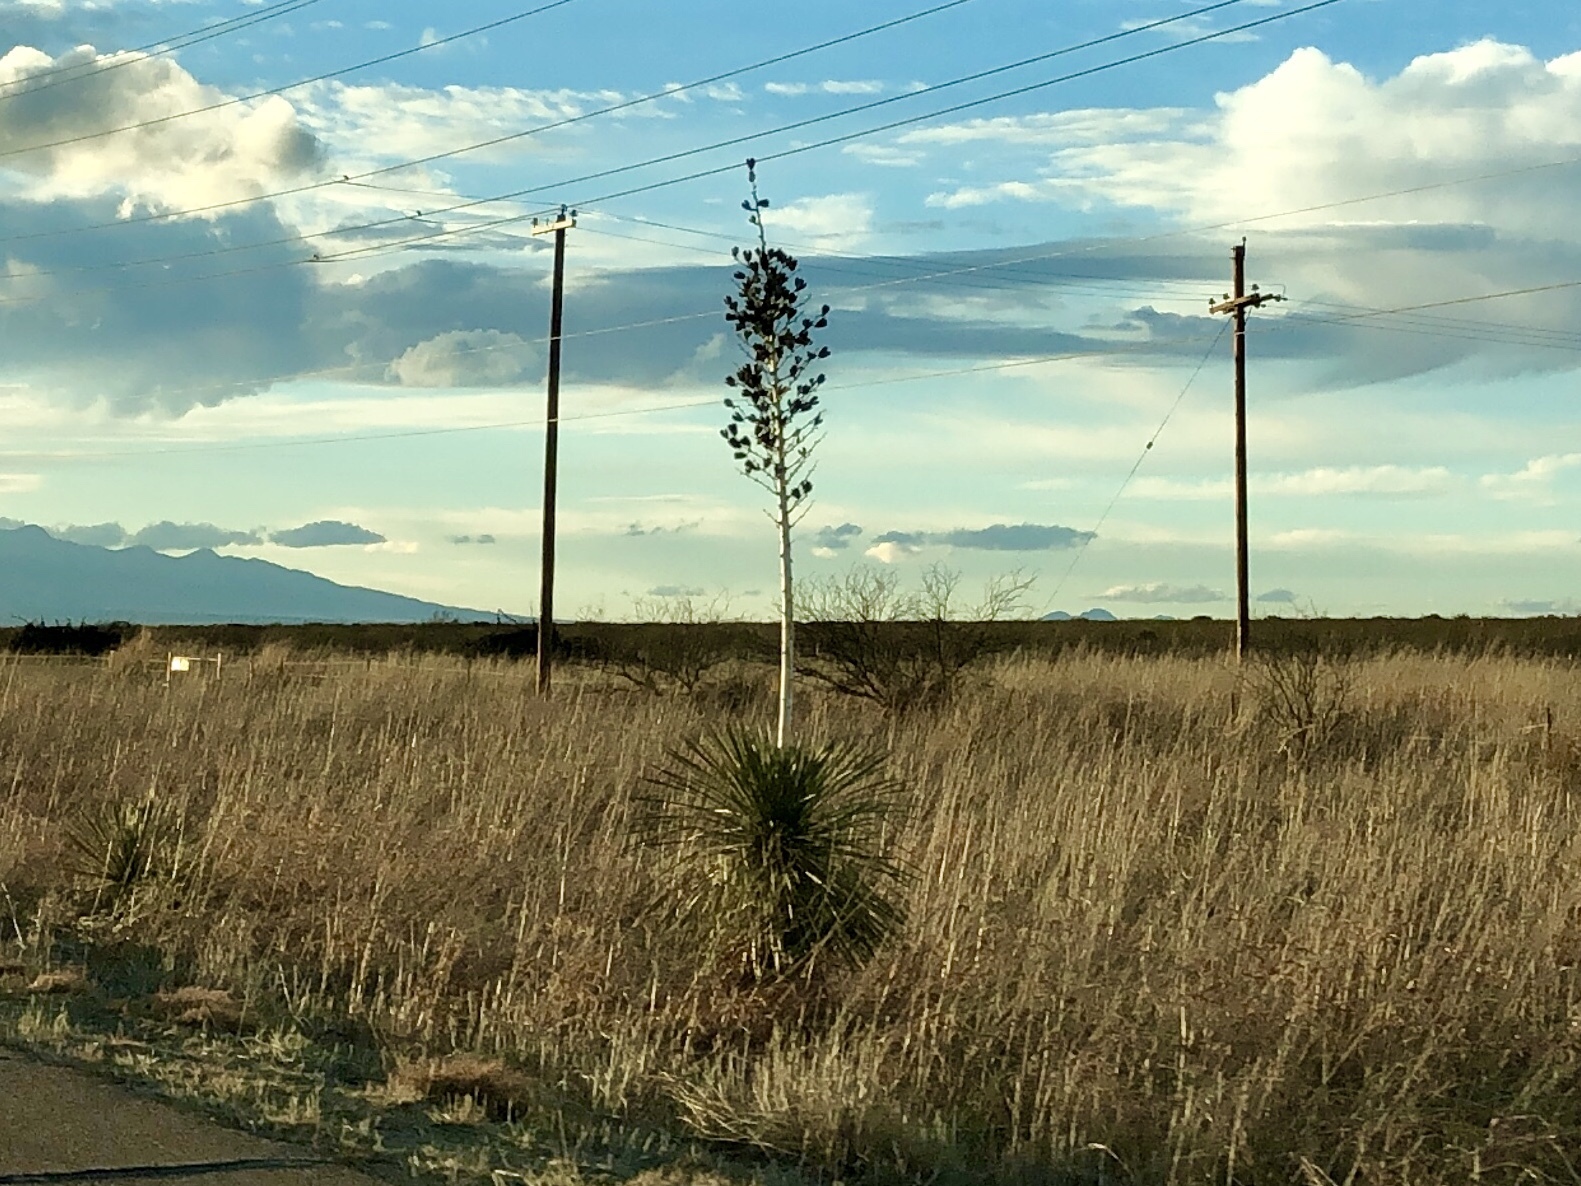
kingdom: Plantae
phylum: Tracheophyta
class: Liliopsida
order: Asparagales
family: Asparagaceae
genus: Yucca
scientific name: Yucca elata
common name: Palmella
